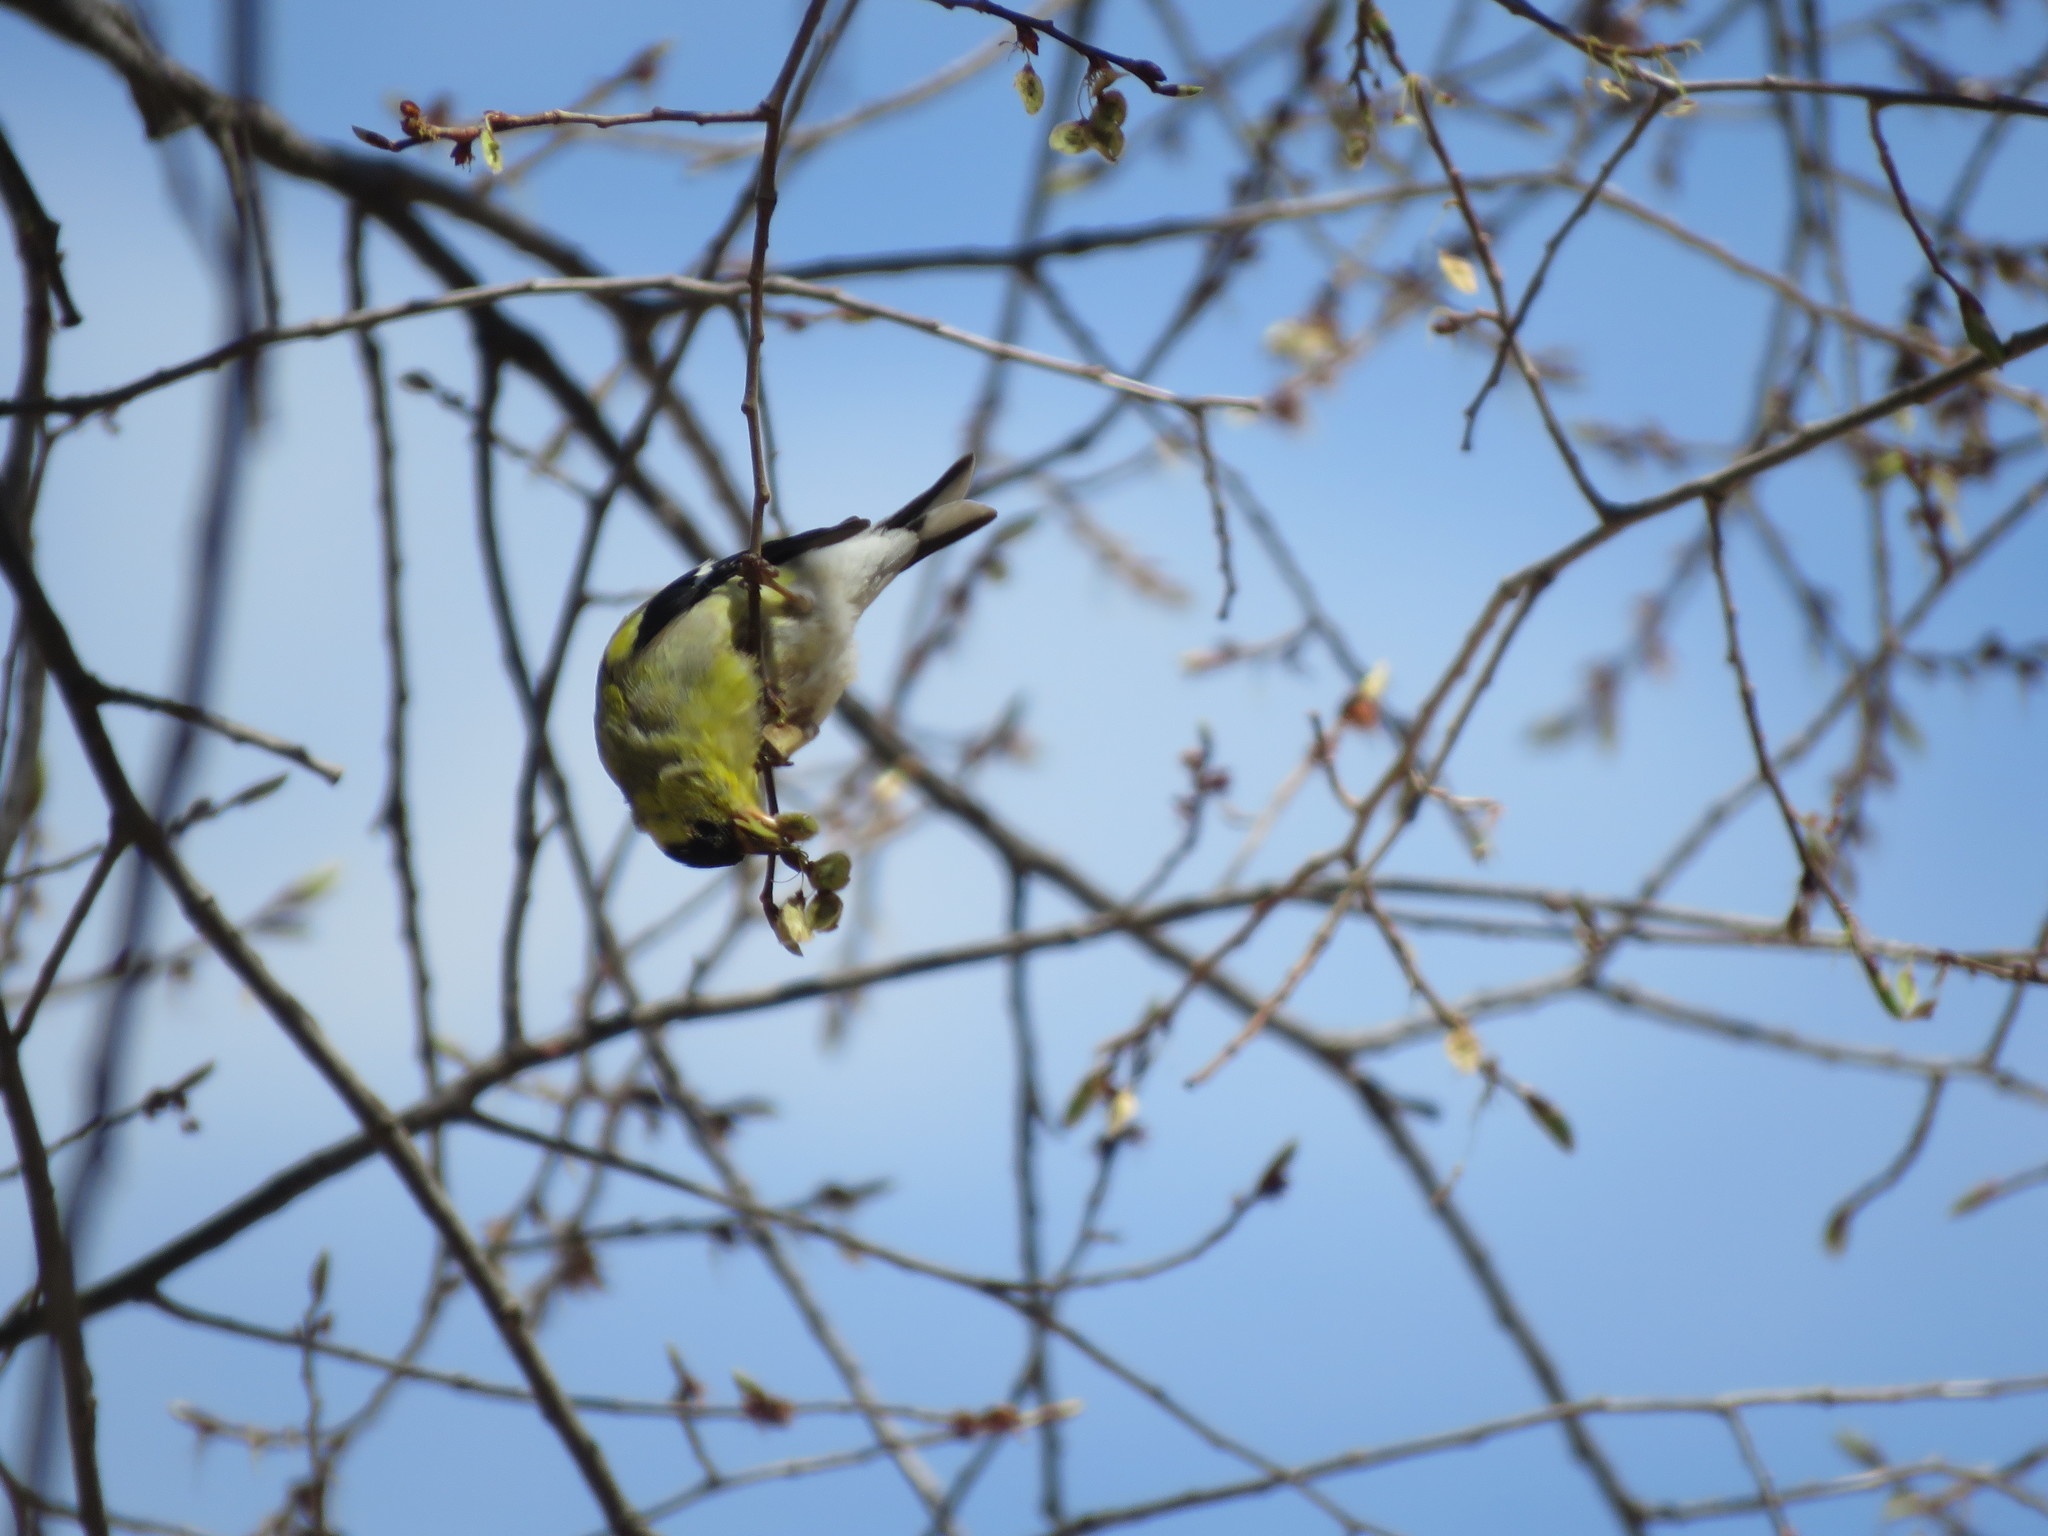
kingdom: Animalia
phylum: Chordata
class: Aves
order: Passeriformes
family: Fringillidae
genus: Spinus
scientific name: Spinus tristis
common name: American goldfinch
